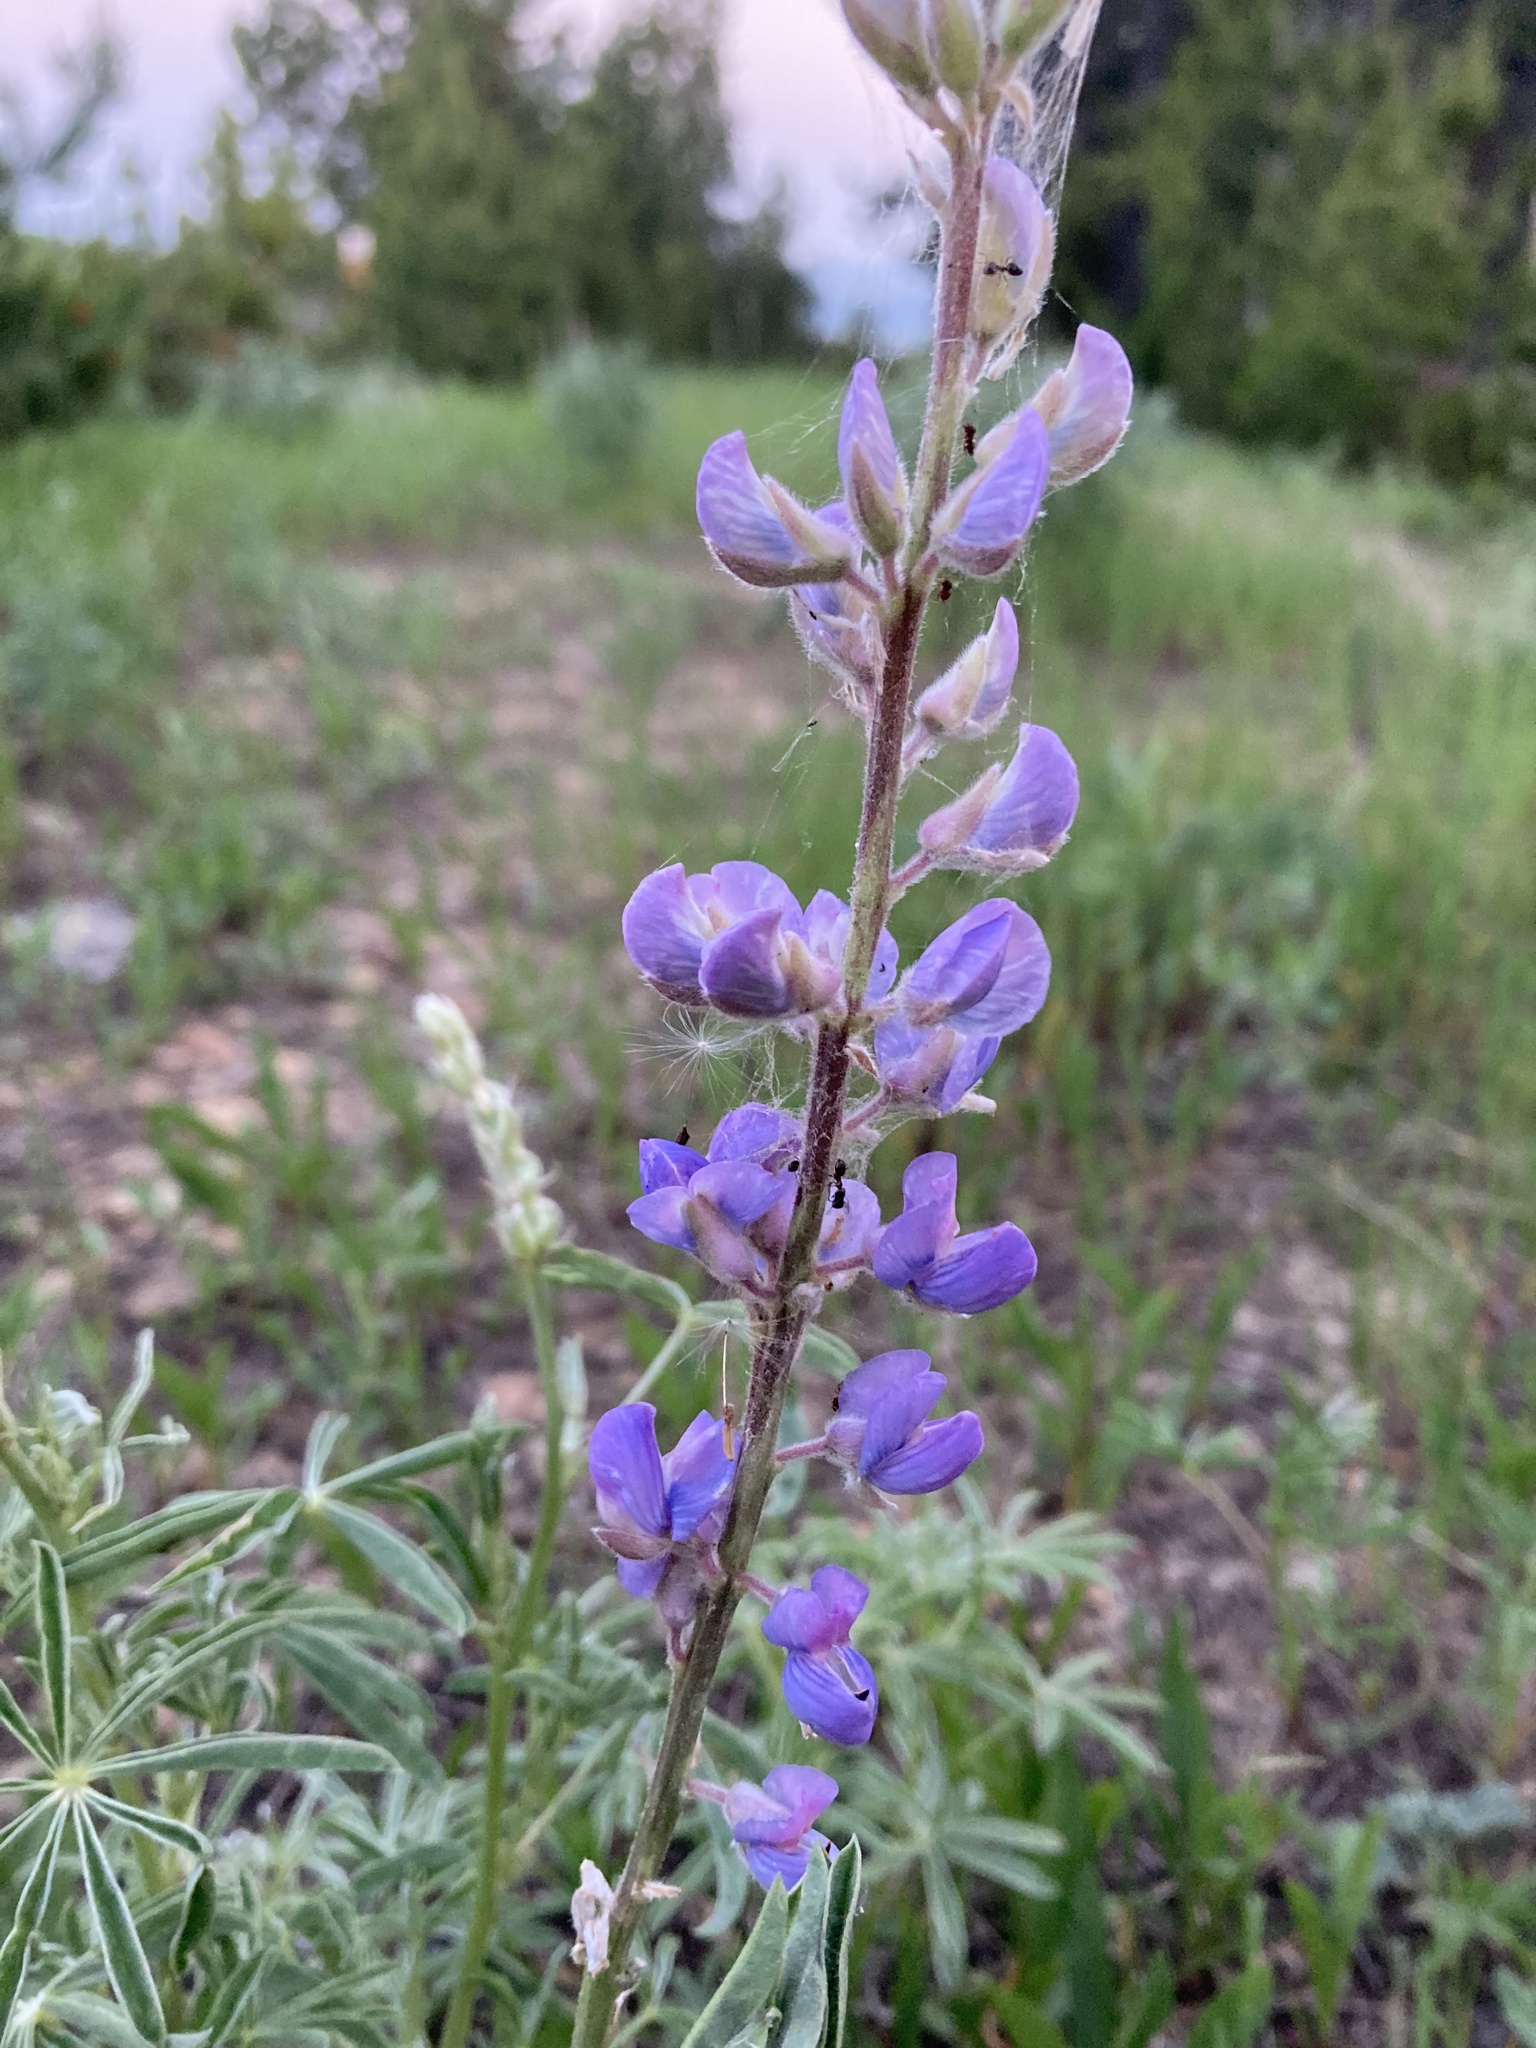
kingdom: Plantae
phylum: Tracheophyta
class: Magnoliopsida
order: Fabales
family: Fabaceae
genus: Lupinus
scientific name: Lupinus argenteus
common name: Silvery lupine
